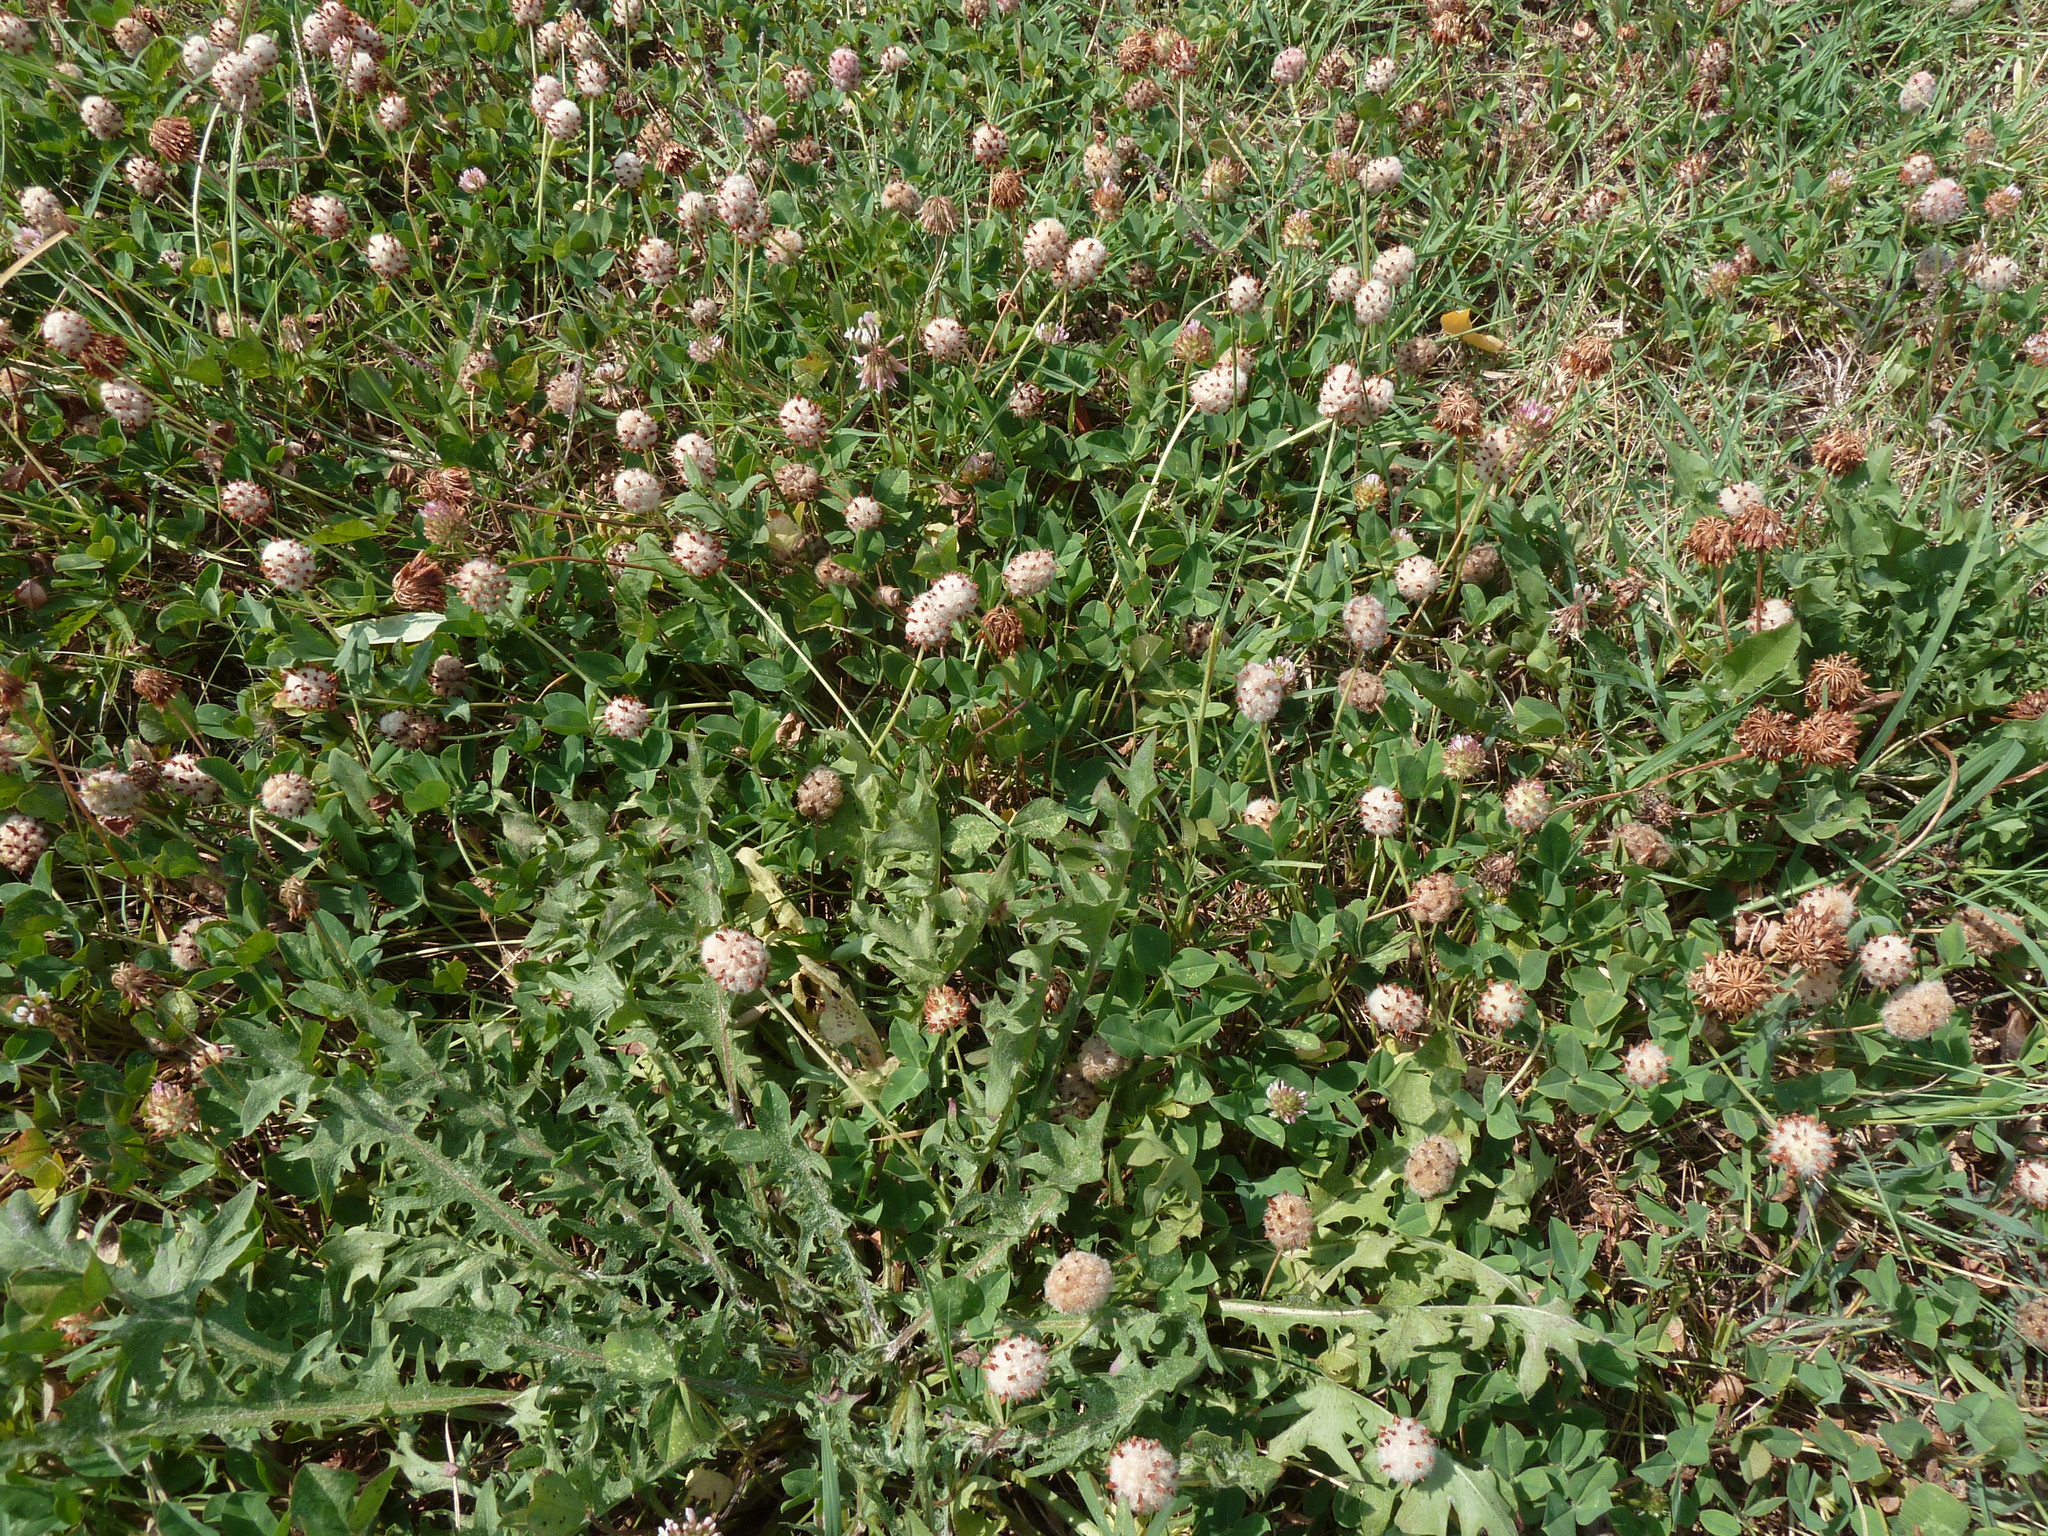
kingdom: Plantae
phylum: Tracheophyta
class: Magnoliopsida
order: Fabales
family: Fabaceae
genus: Trifolium
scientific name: Trifolium fragiferum
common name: Strawberry clover
